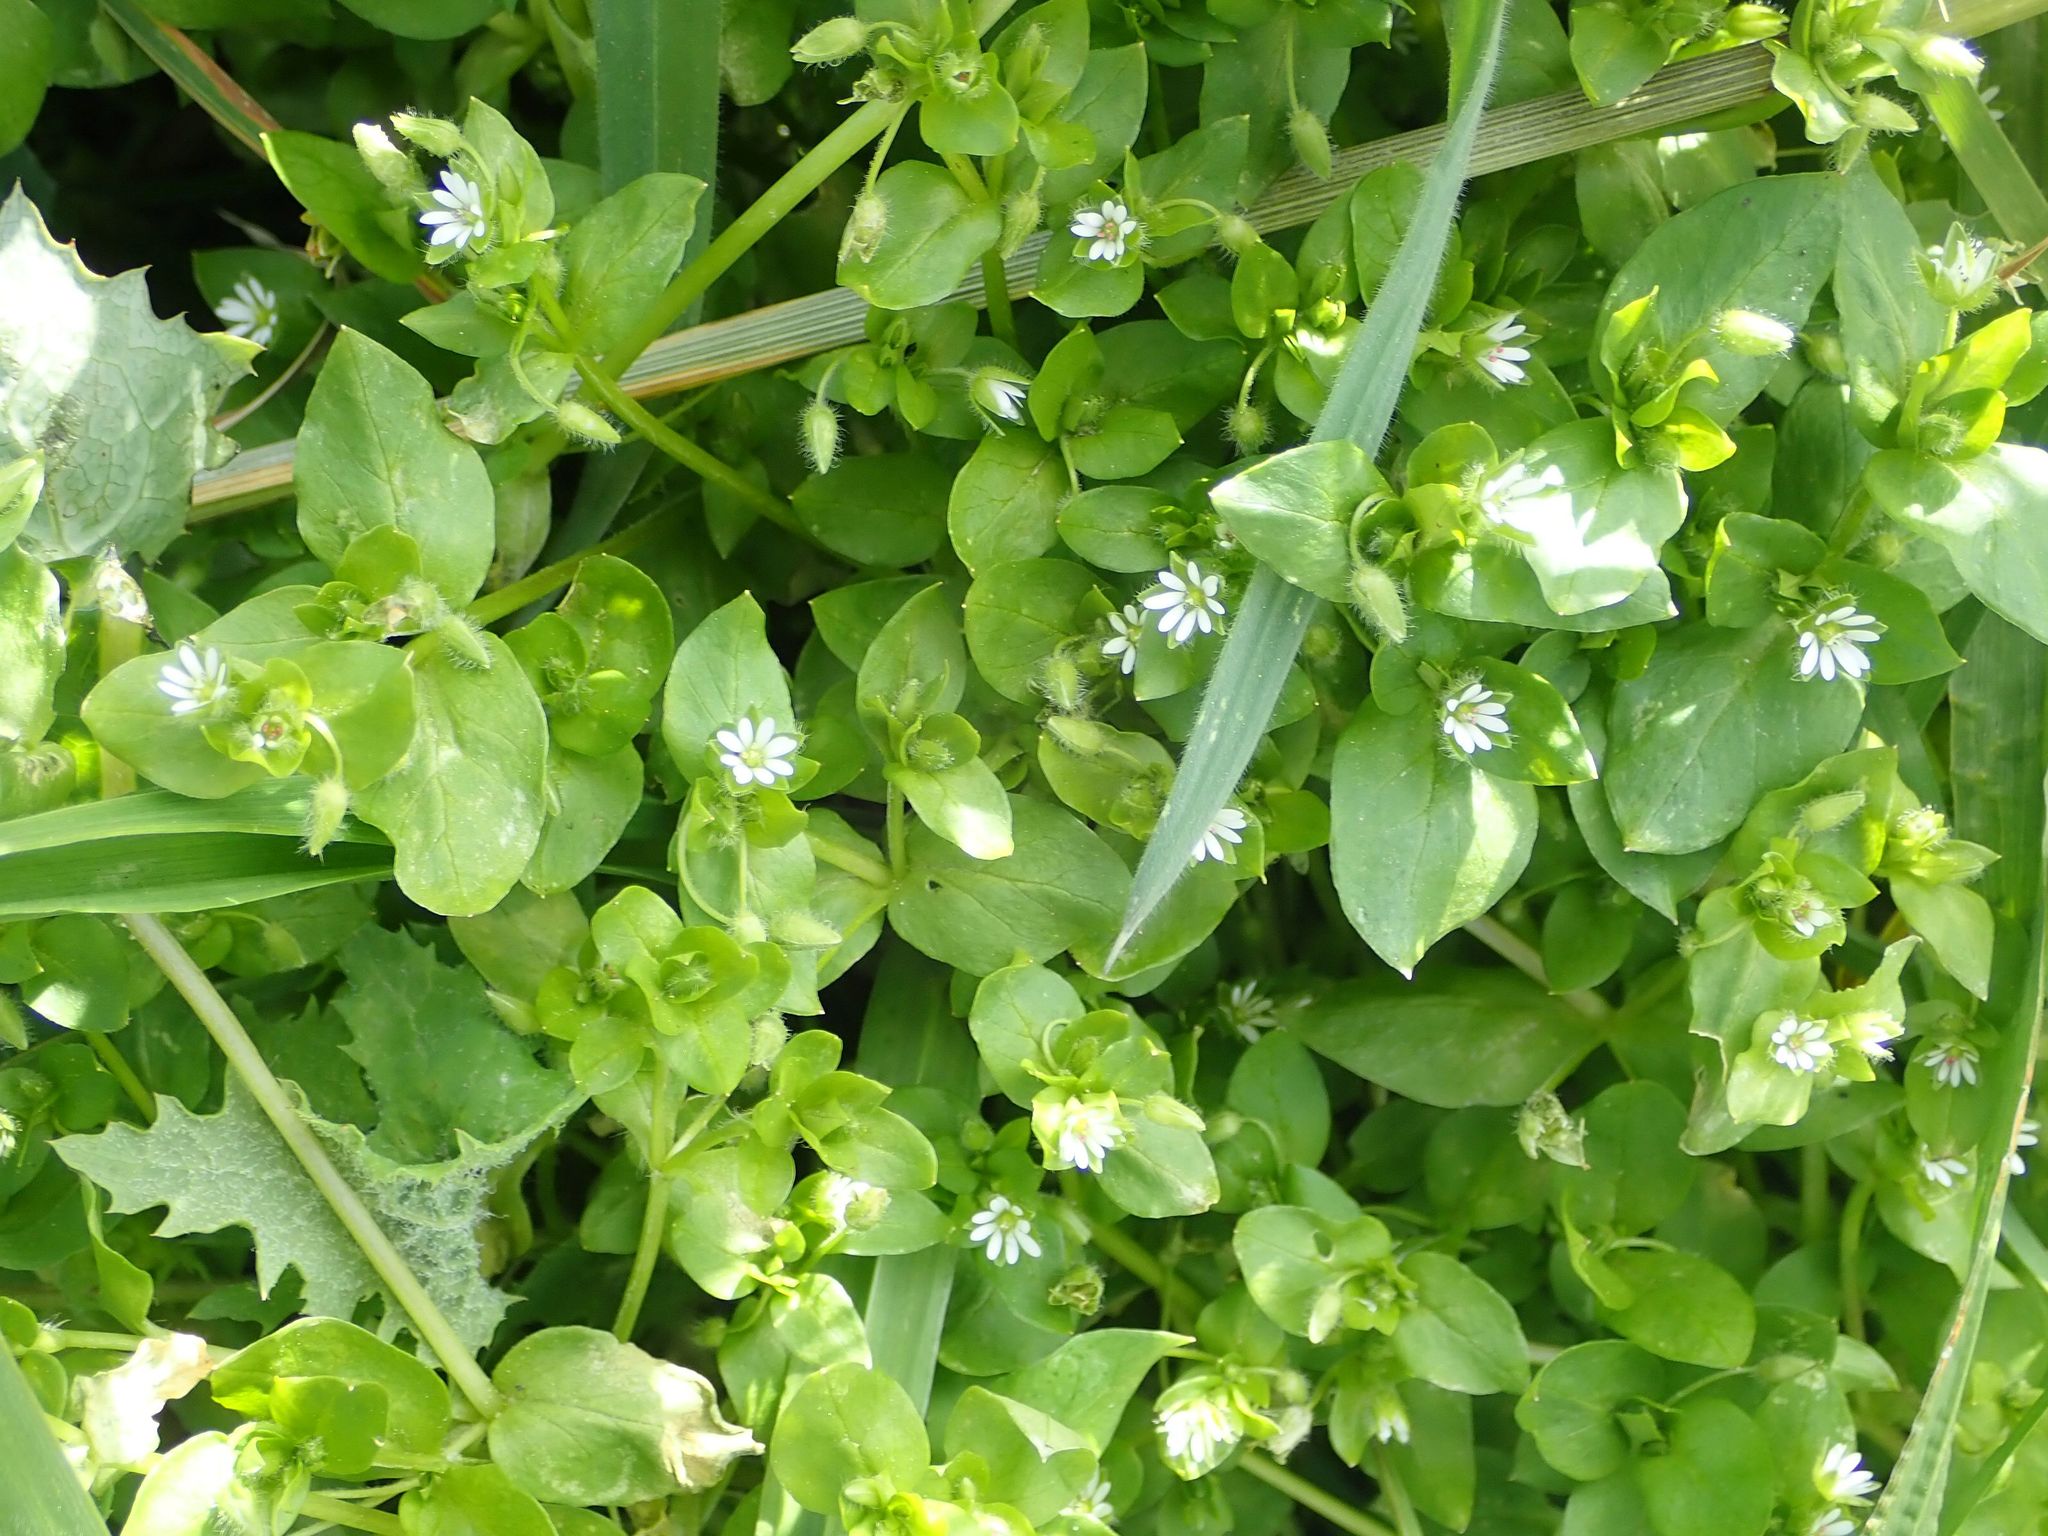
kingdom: Plantae
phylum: Tracheophyta
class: Magnoliopsida
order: Caryophyllales
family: Caryophyllaceae
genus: Stellaria
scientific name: Stellaria media
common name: Common chickweed
